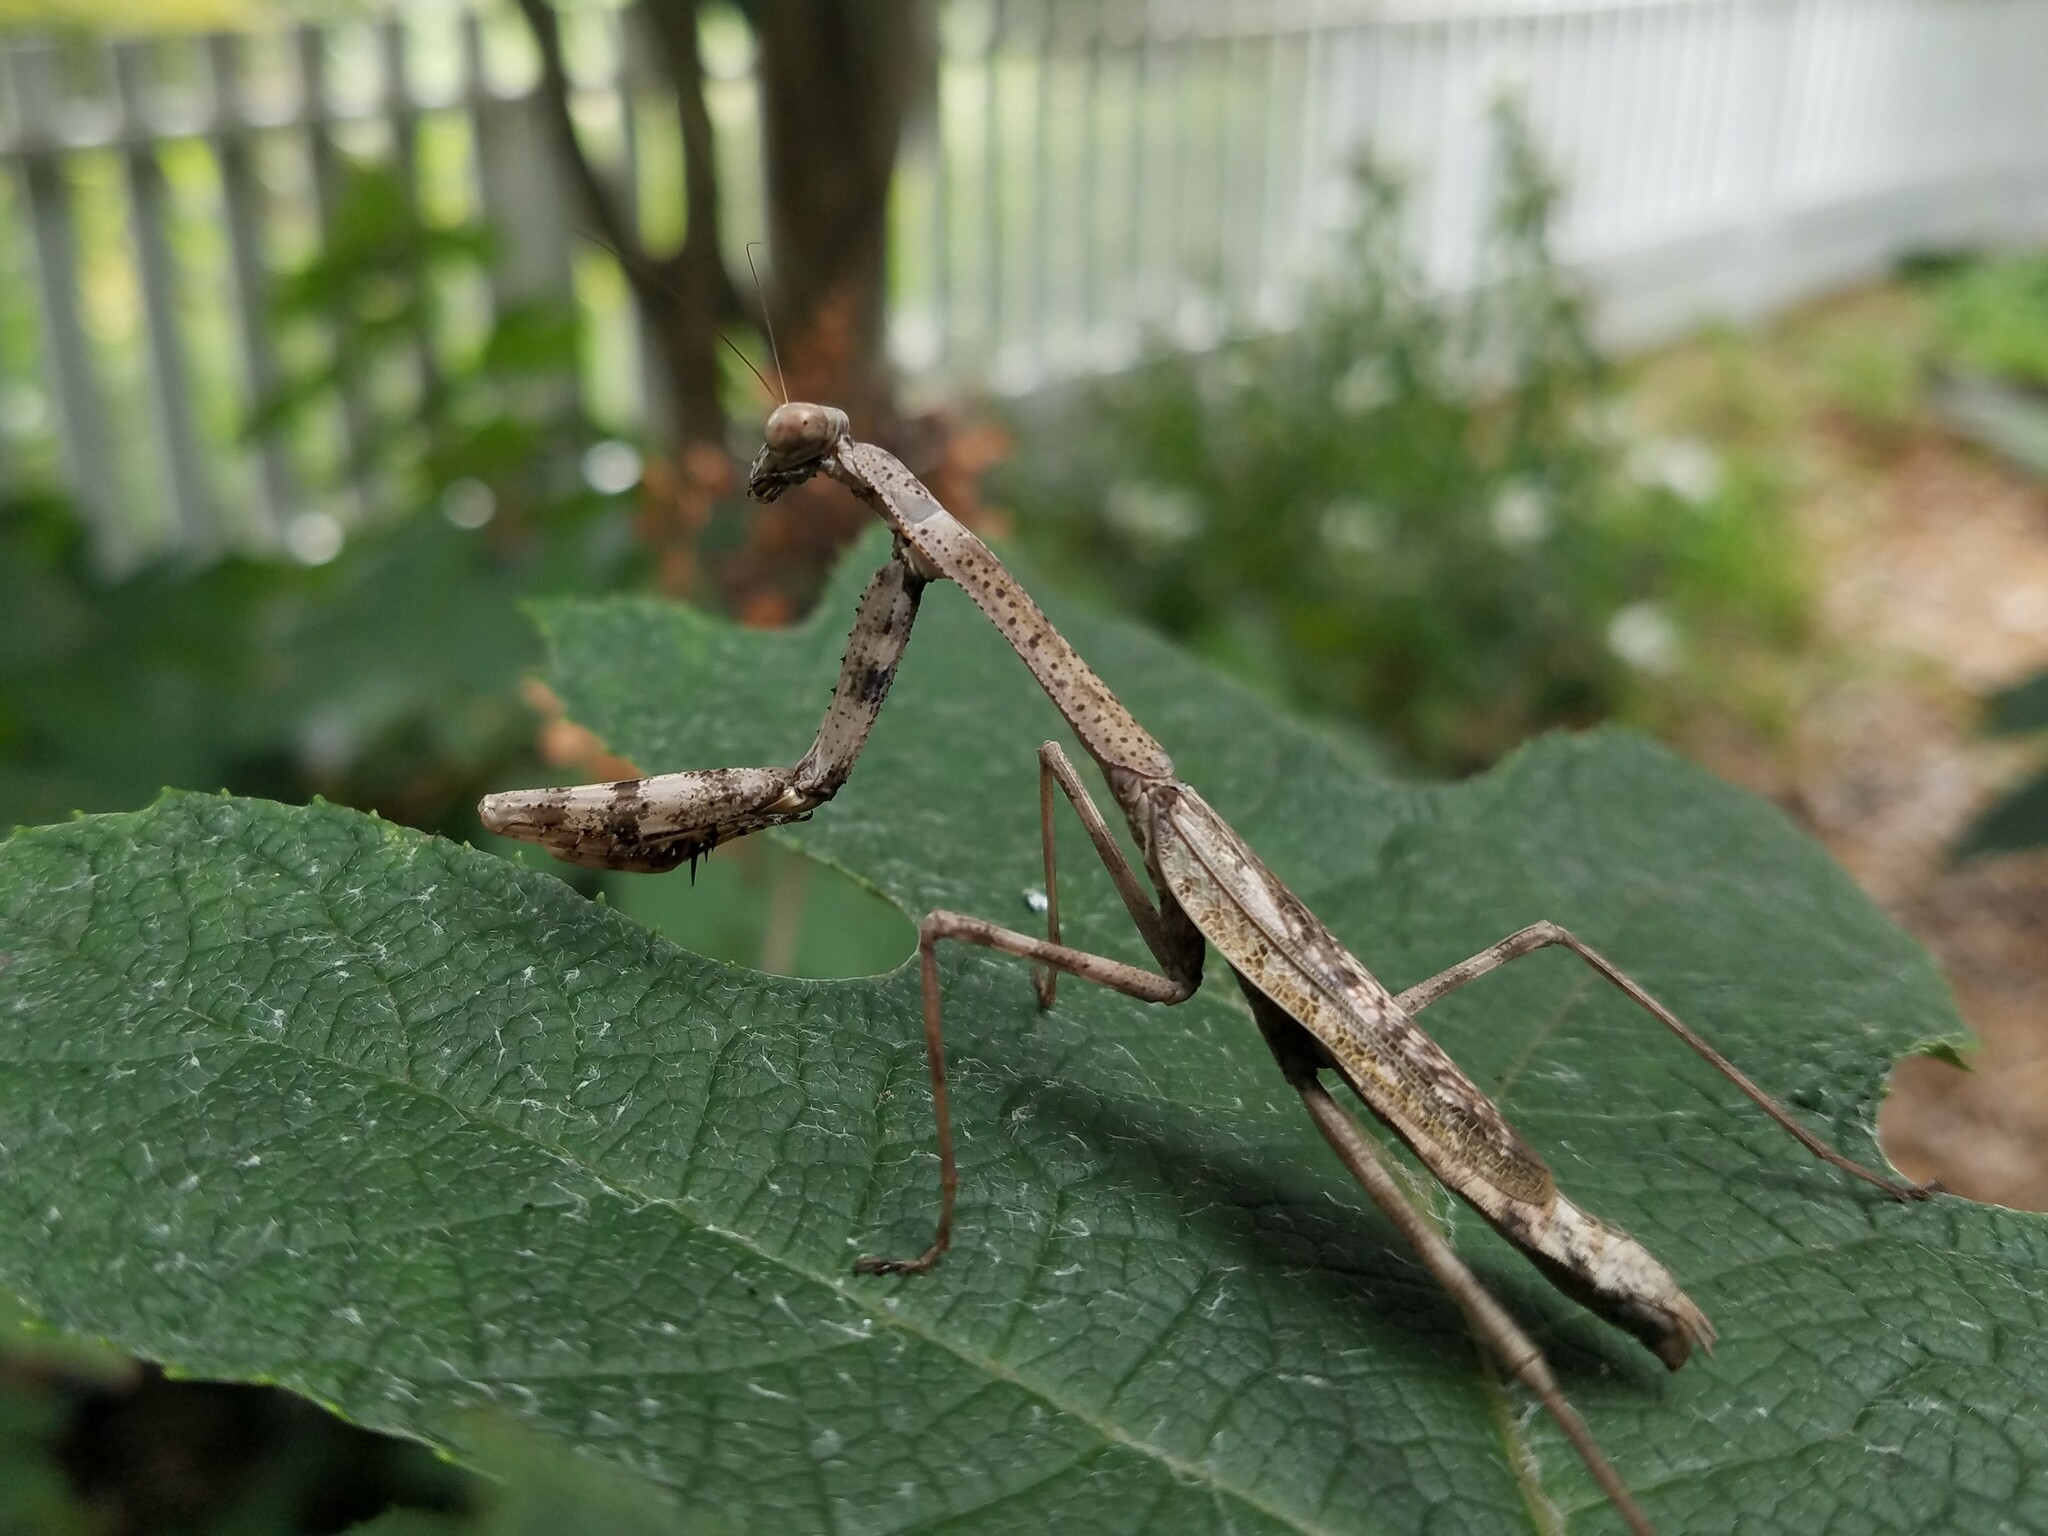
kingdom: Animalia
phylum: Arthropoda
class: Insecta
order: Mantodea
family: Mantidae
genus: Stagmomantis
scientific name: Stagmomantis carolina
